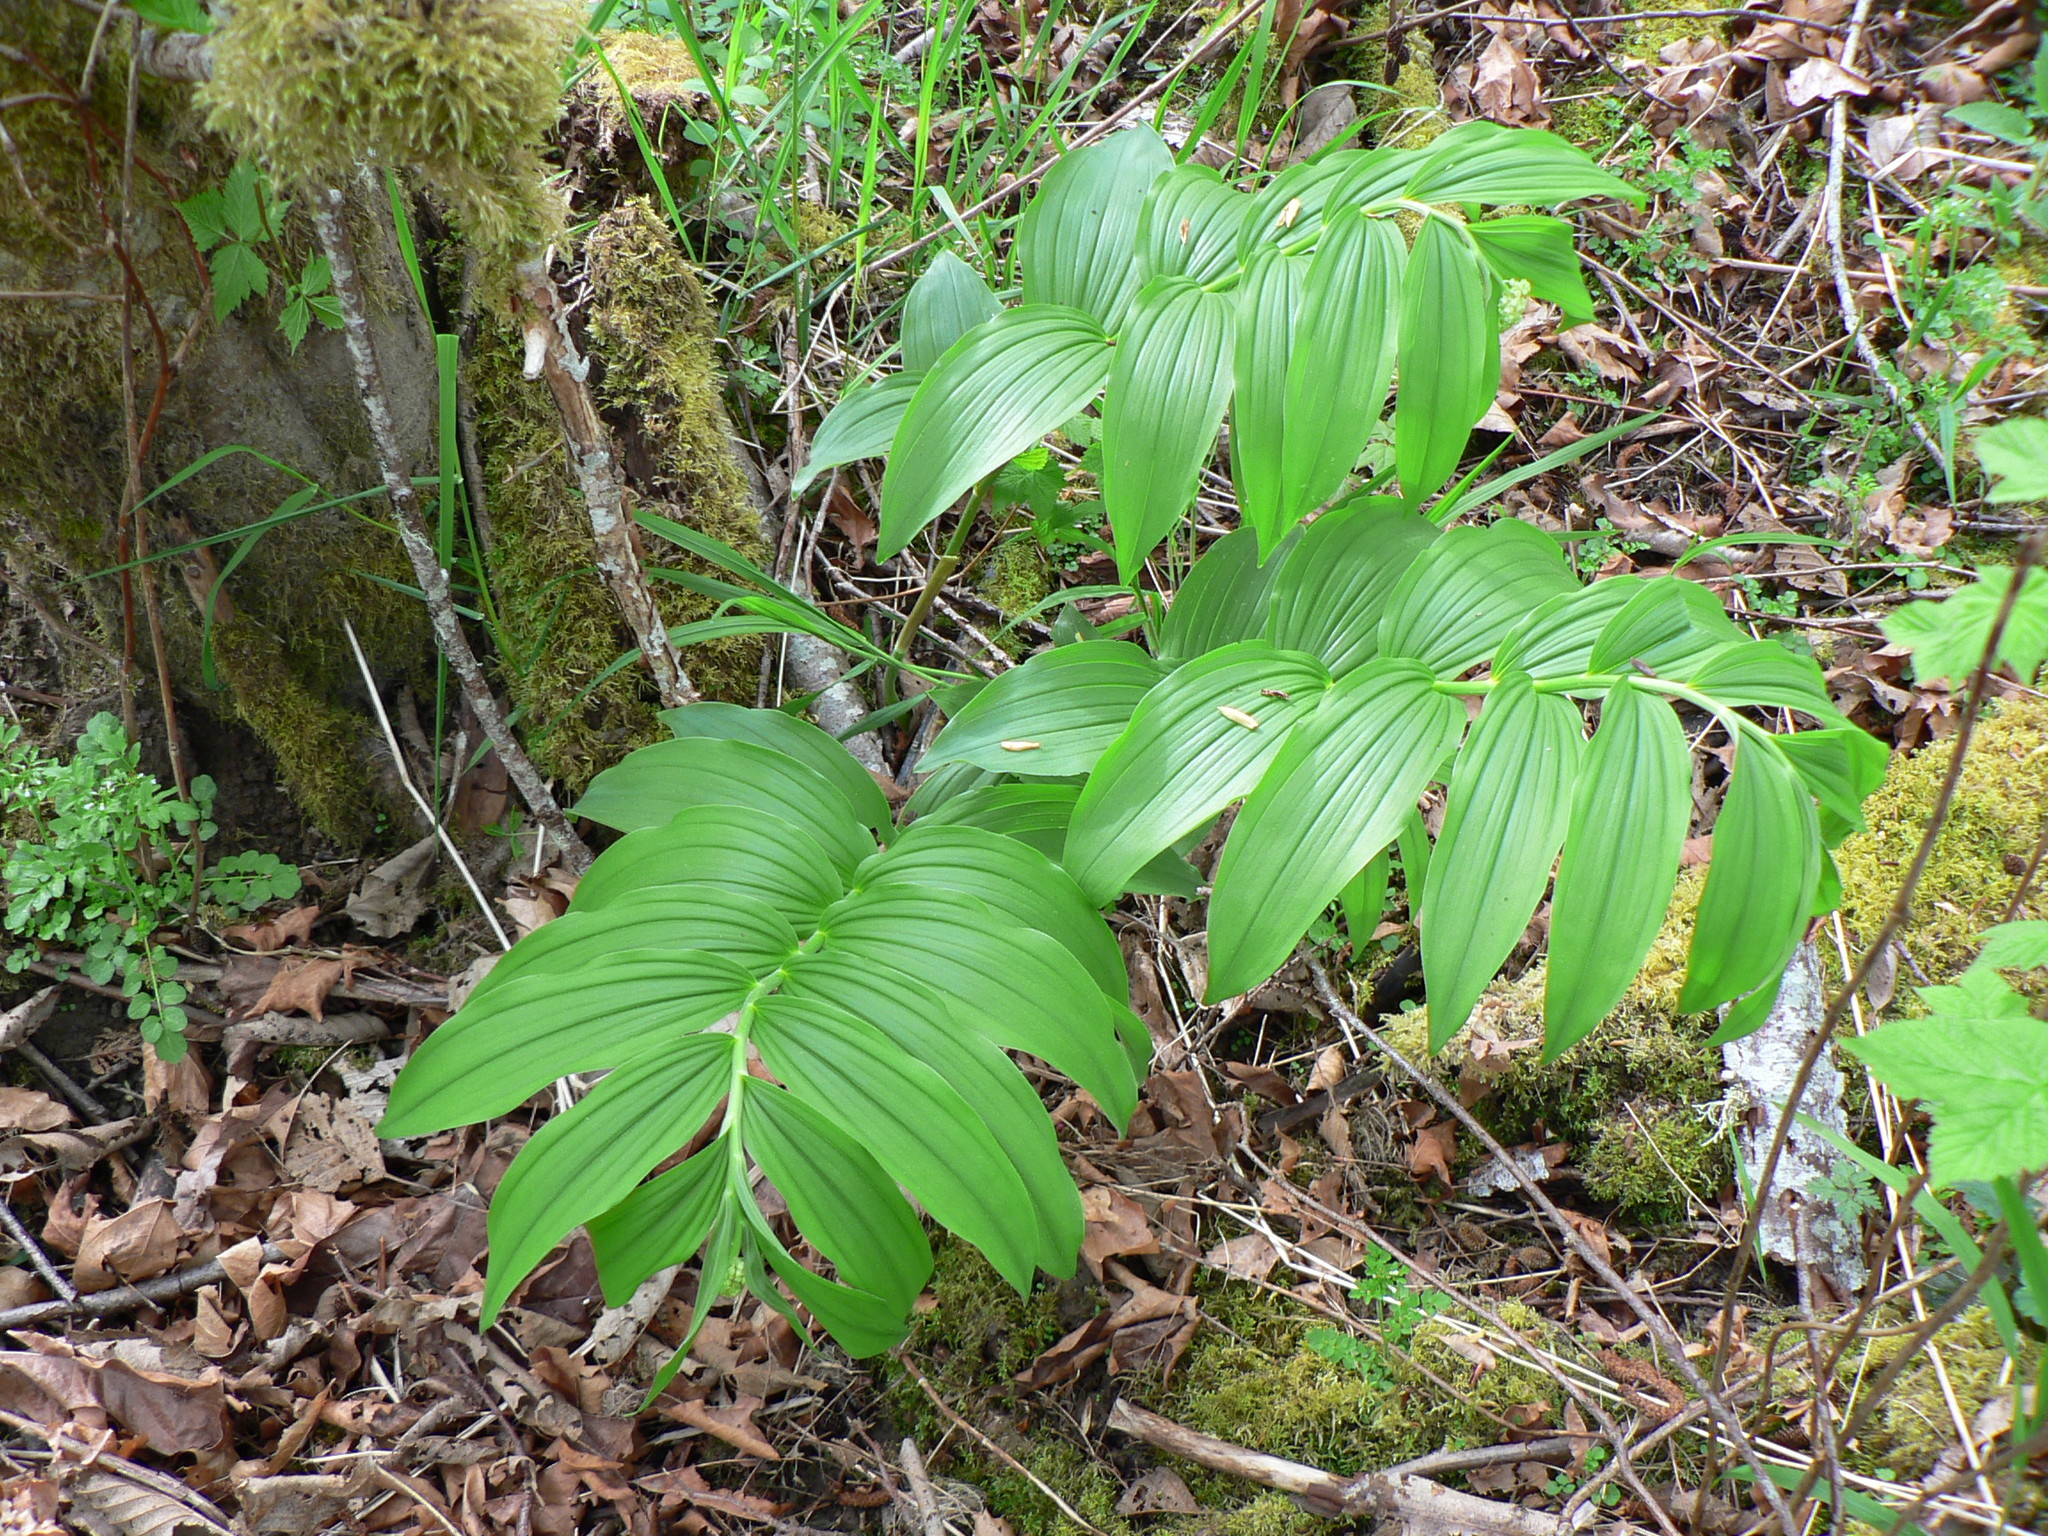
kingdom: Plantae
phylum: Tracheophyta
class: Liliopsida
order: Asparagales
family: Asparagaceae
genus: Maianthemum
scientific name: Maianthemum racemosum
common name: False spikenard
